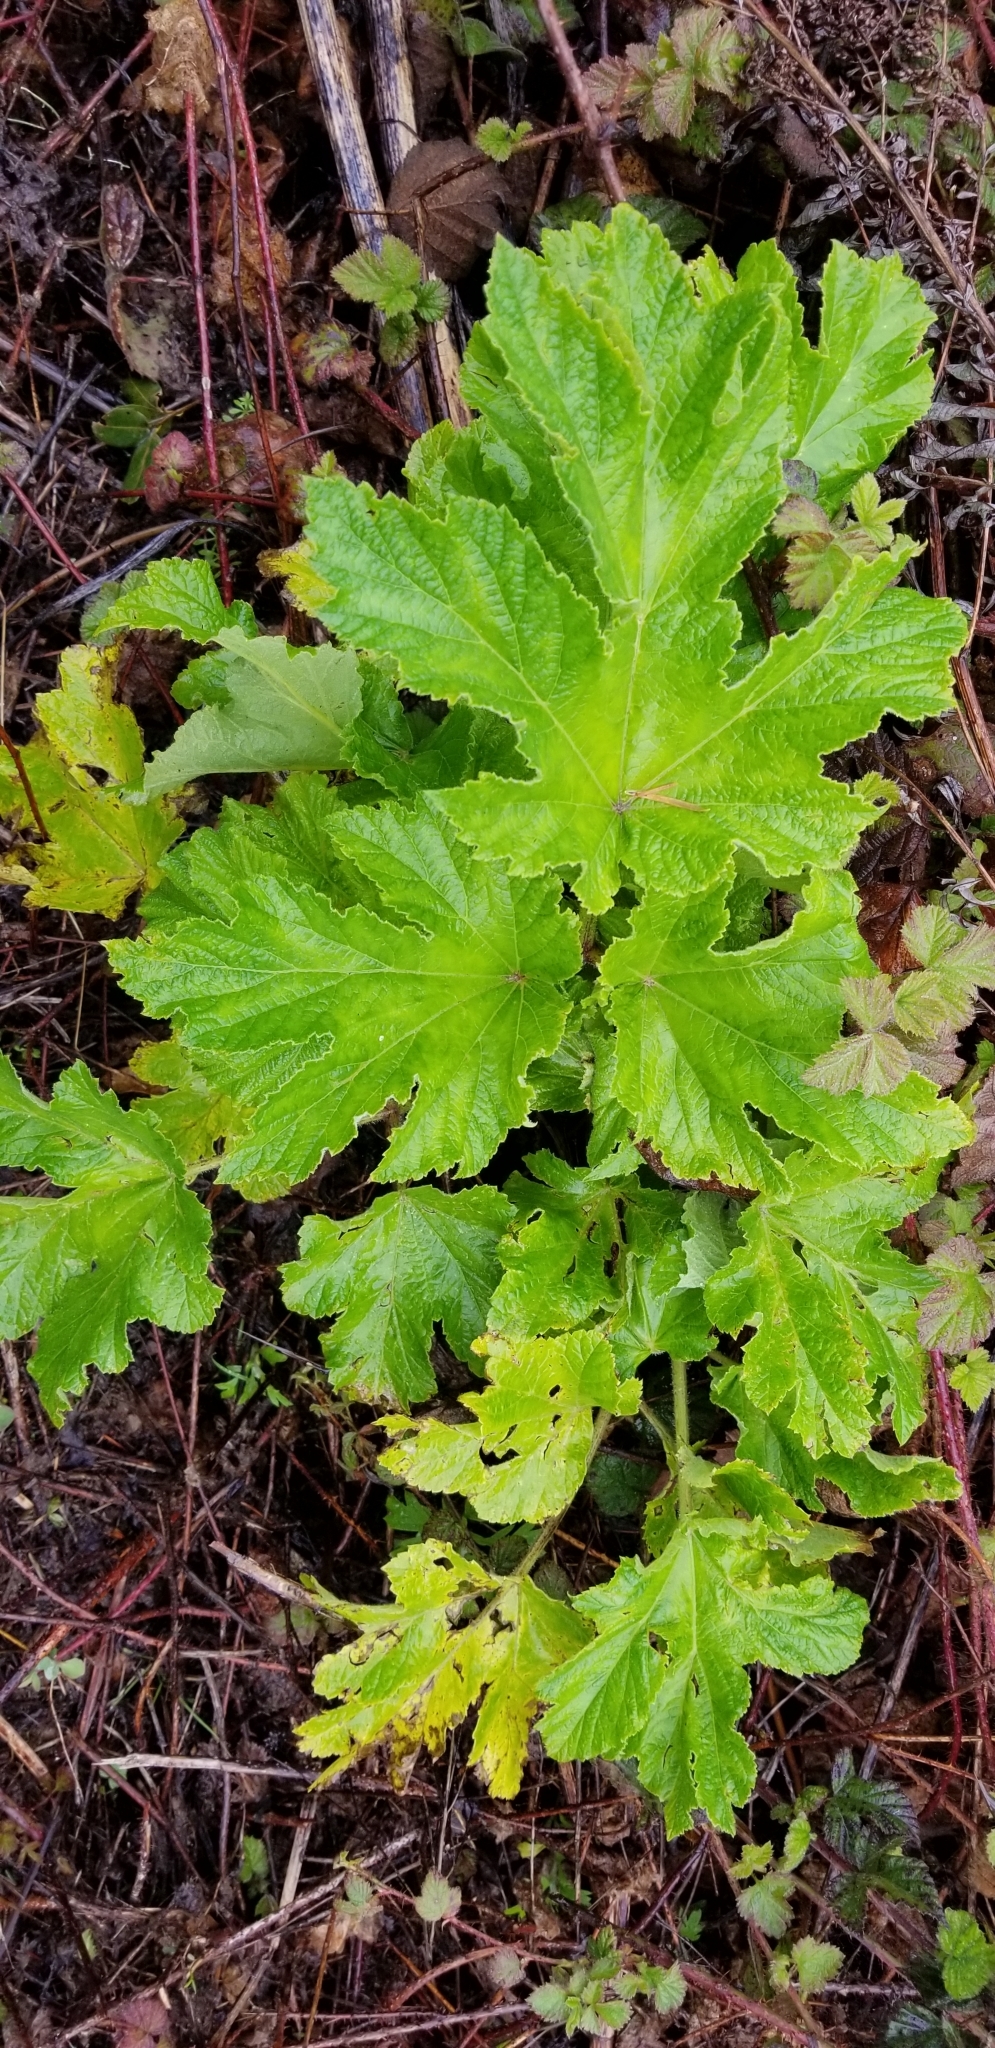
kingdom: Plantae
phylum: Tracheophyta
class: Magnoliopsida
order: Apiales
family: Apiaceae
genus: Heracleum
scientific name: Heracleum maximum
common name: American cow parsnip
